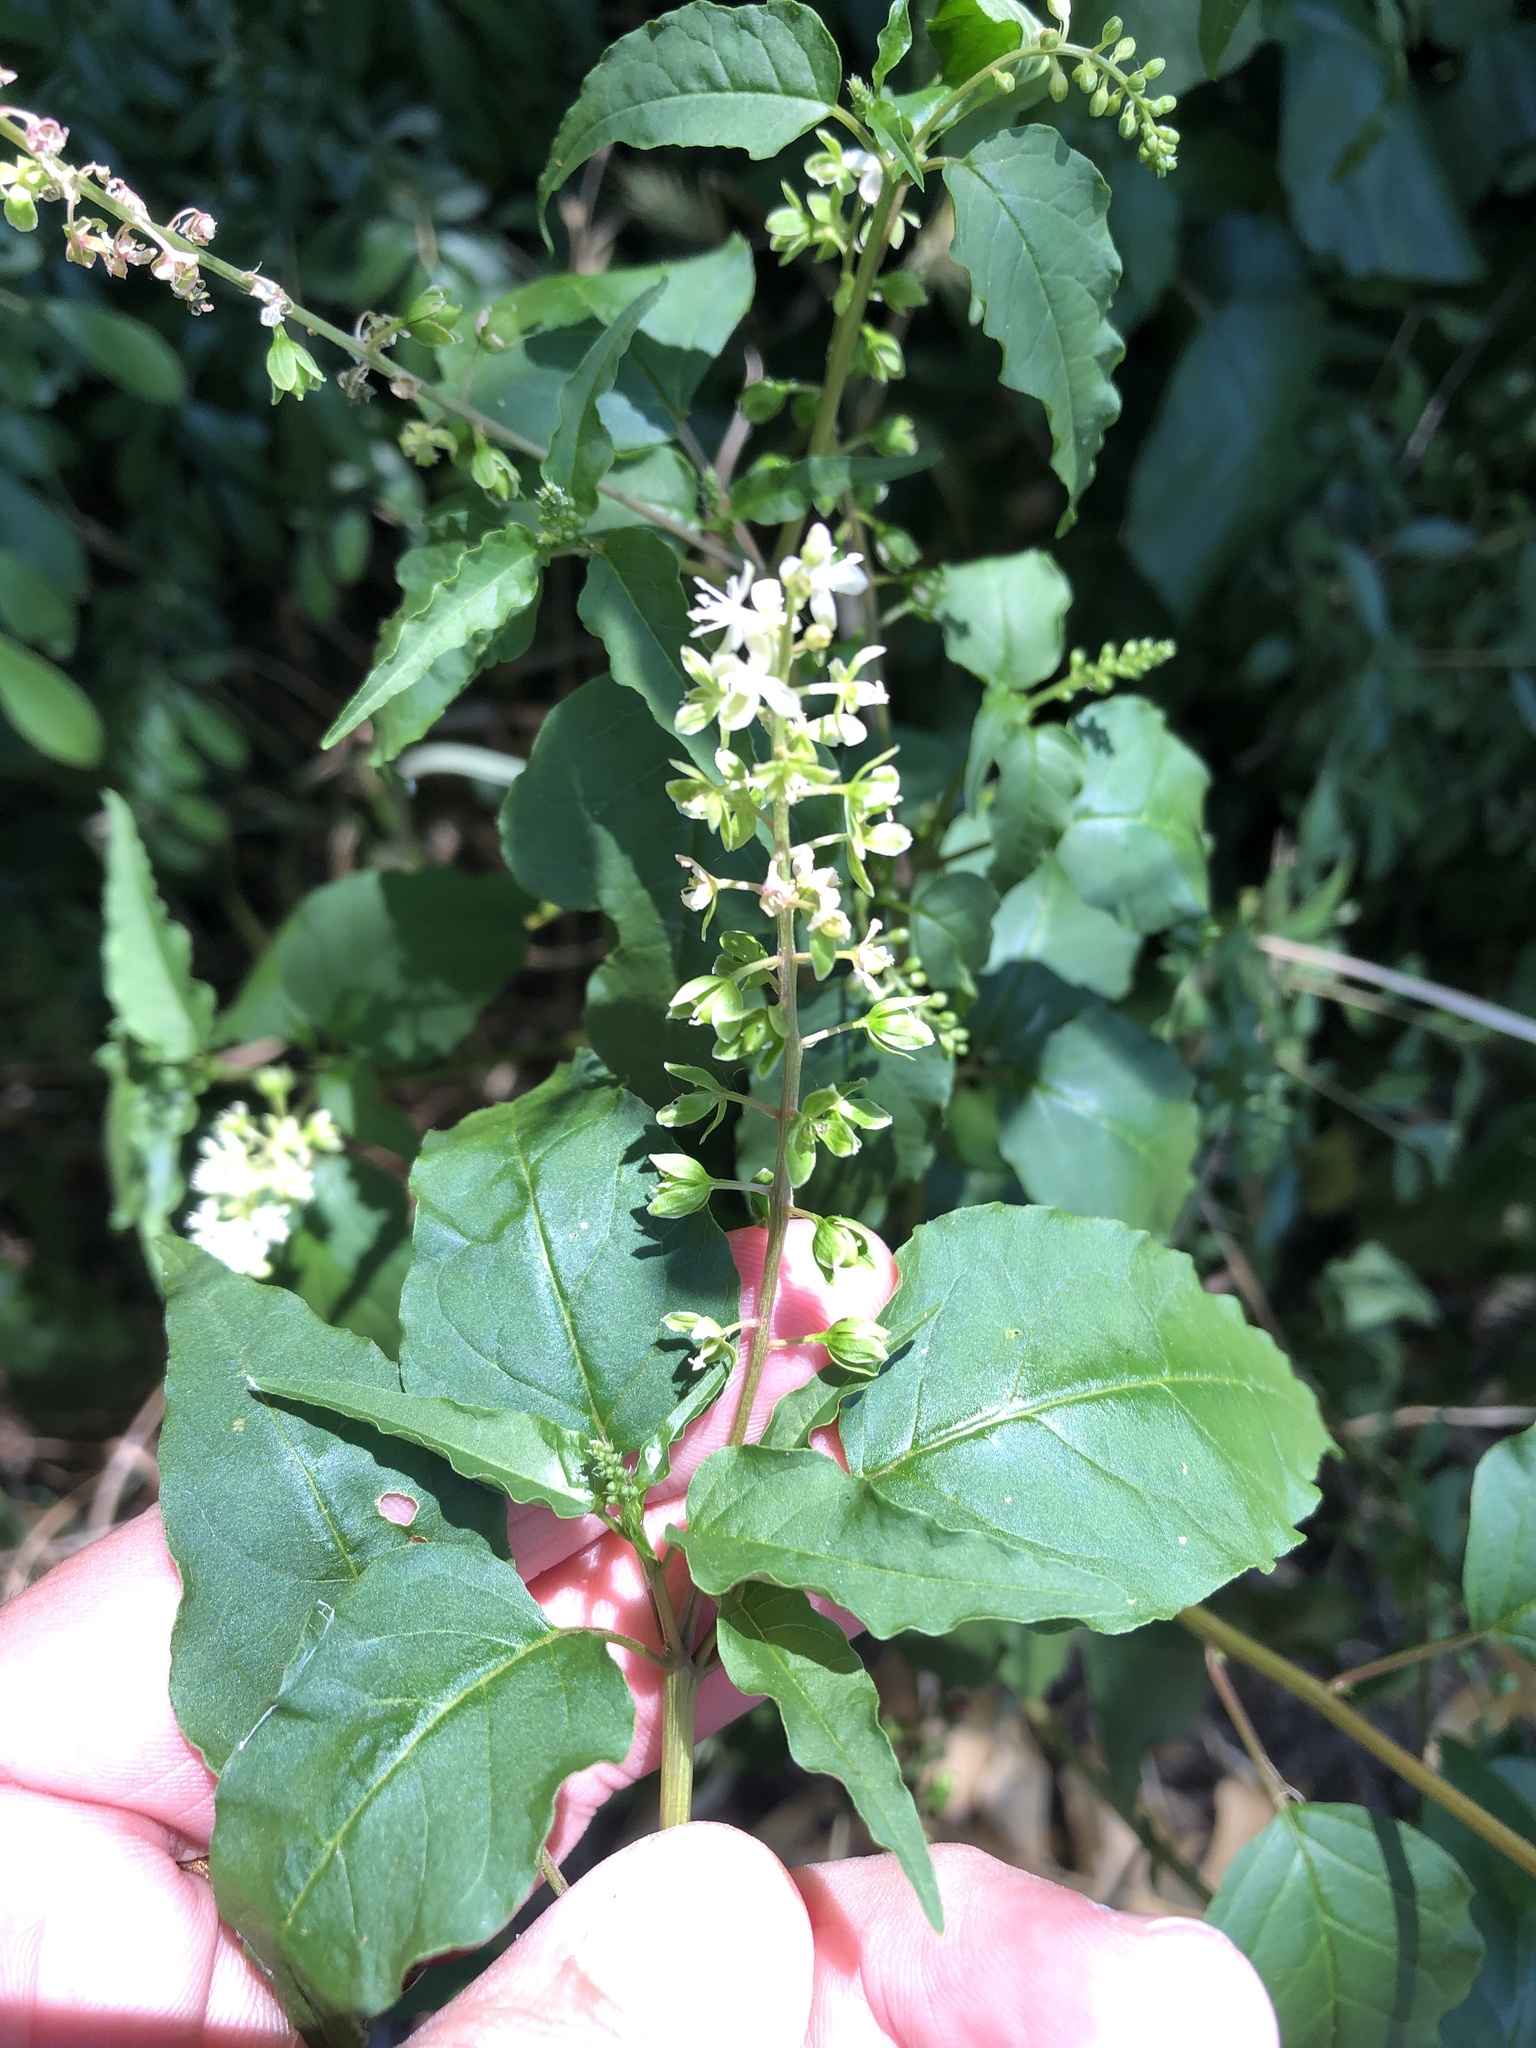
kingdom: Plantae
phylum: Tracheophyta
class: Magnoliopsida
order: Caryophyllales
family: Phytolaccaceae
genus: Rivina
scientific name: Rivina humilis
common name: Rougeplant
